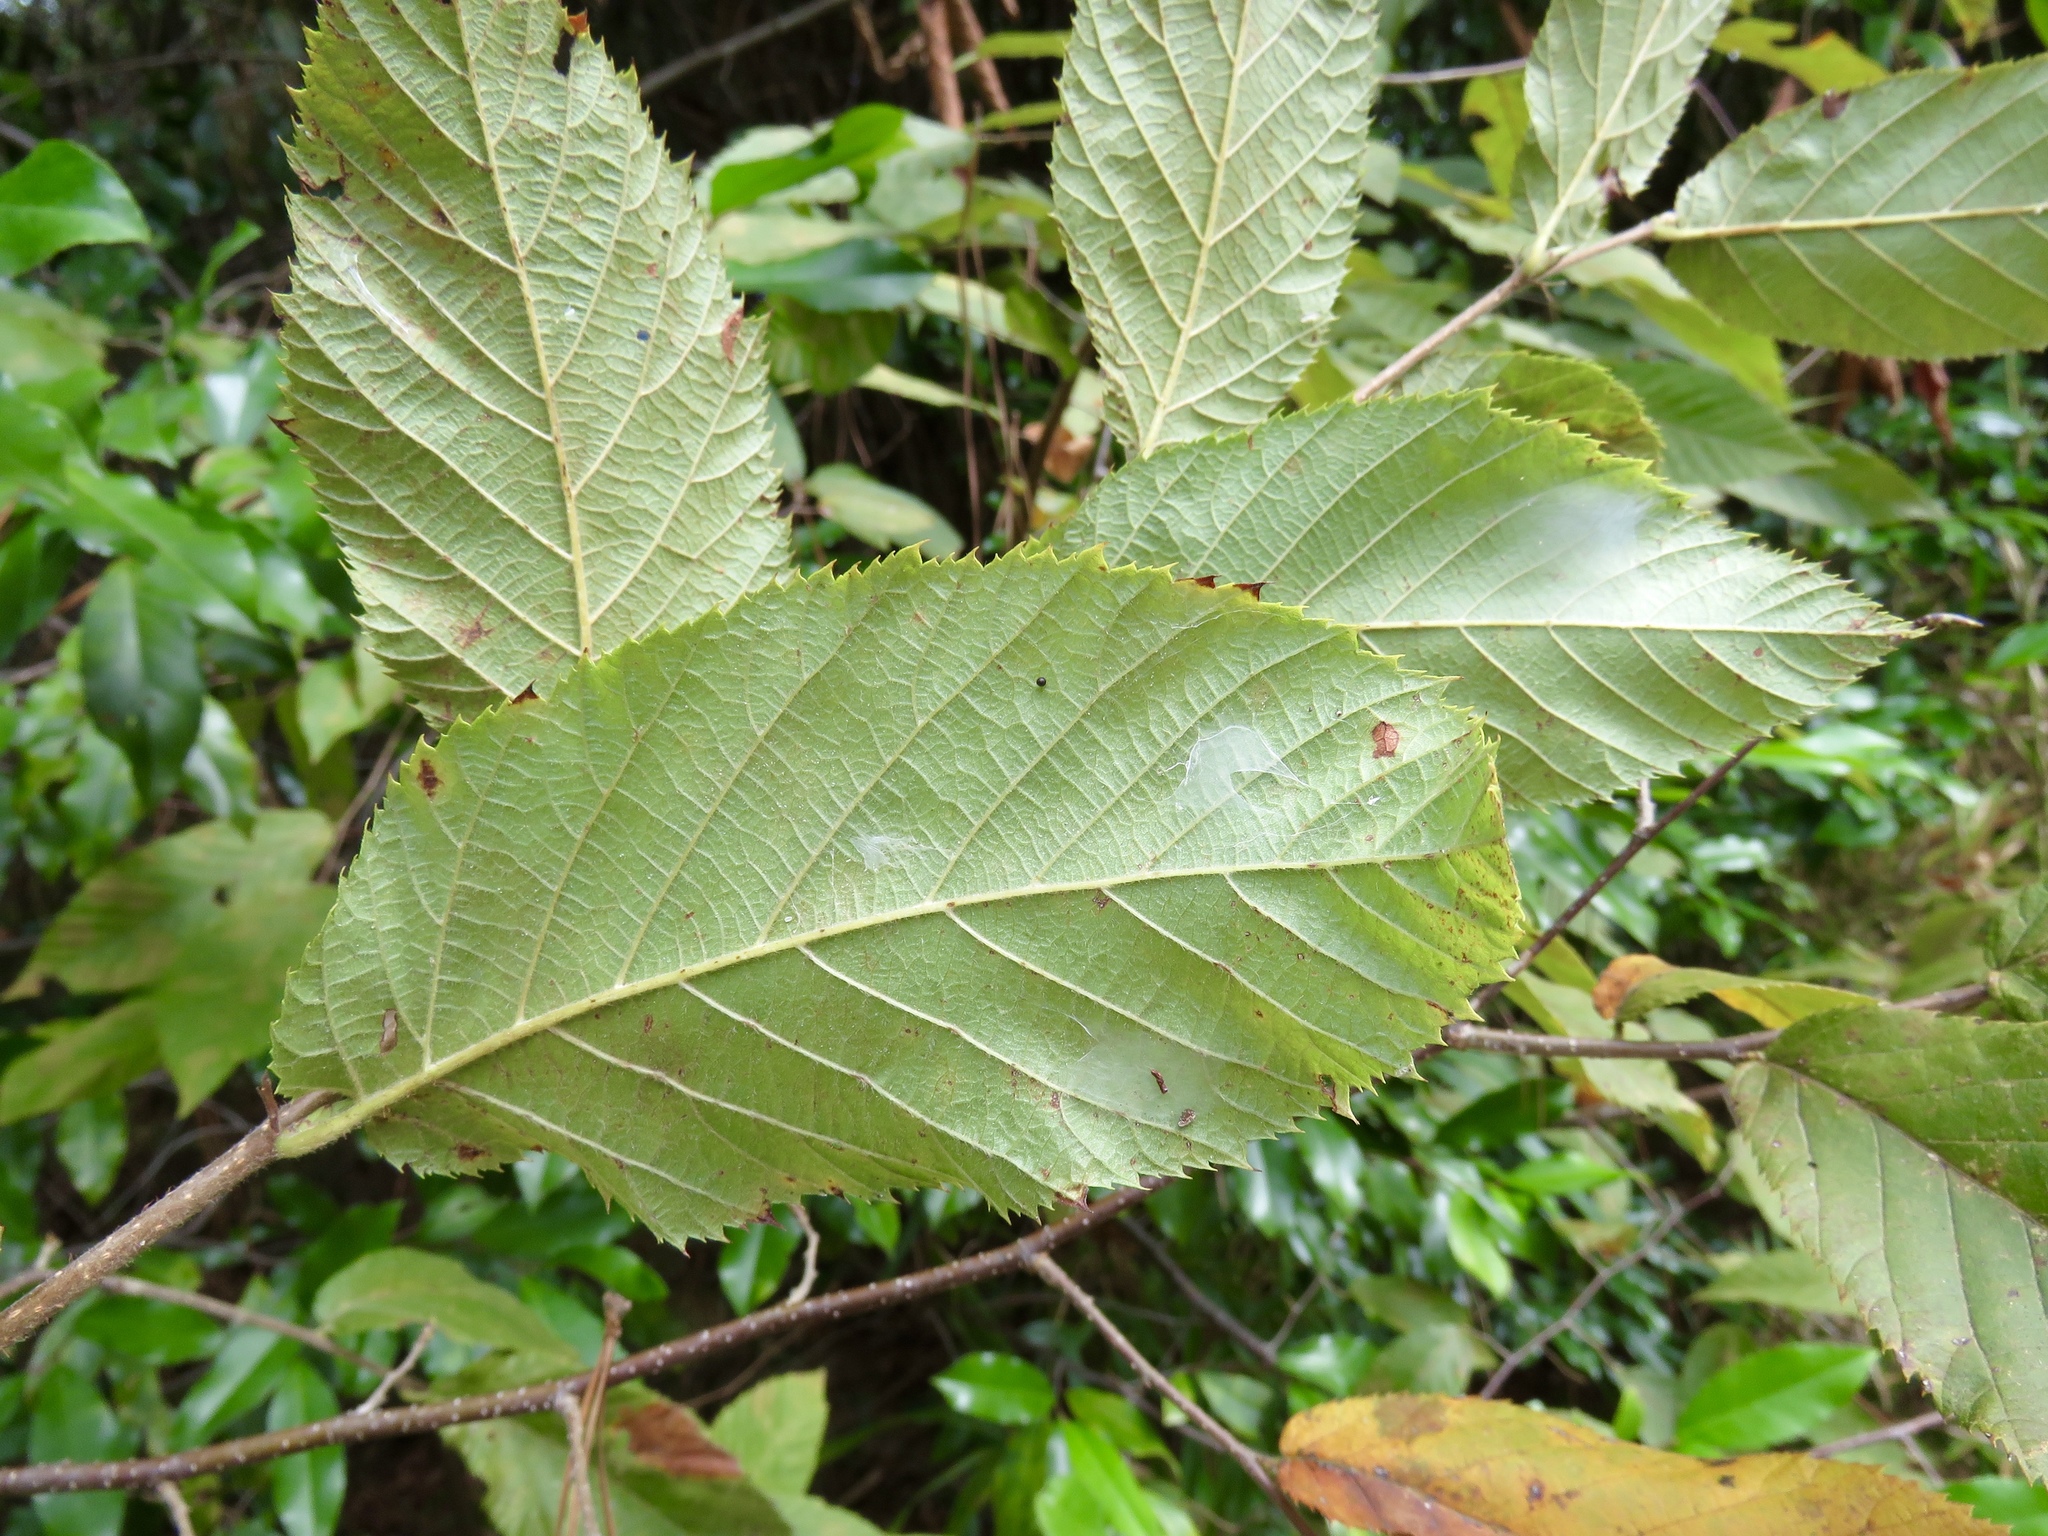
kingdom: Plantae
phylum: Tracheophyta
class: Magnoliopsida
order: Fagales
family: Betulaceae
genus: Ostrya
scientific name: Ostrya virginiana
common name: Ironwood
